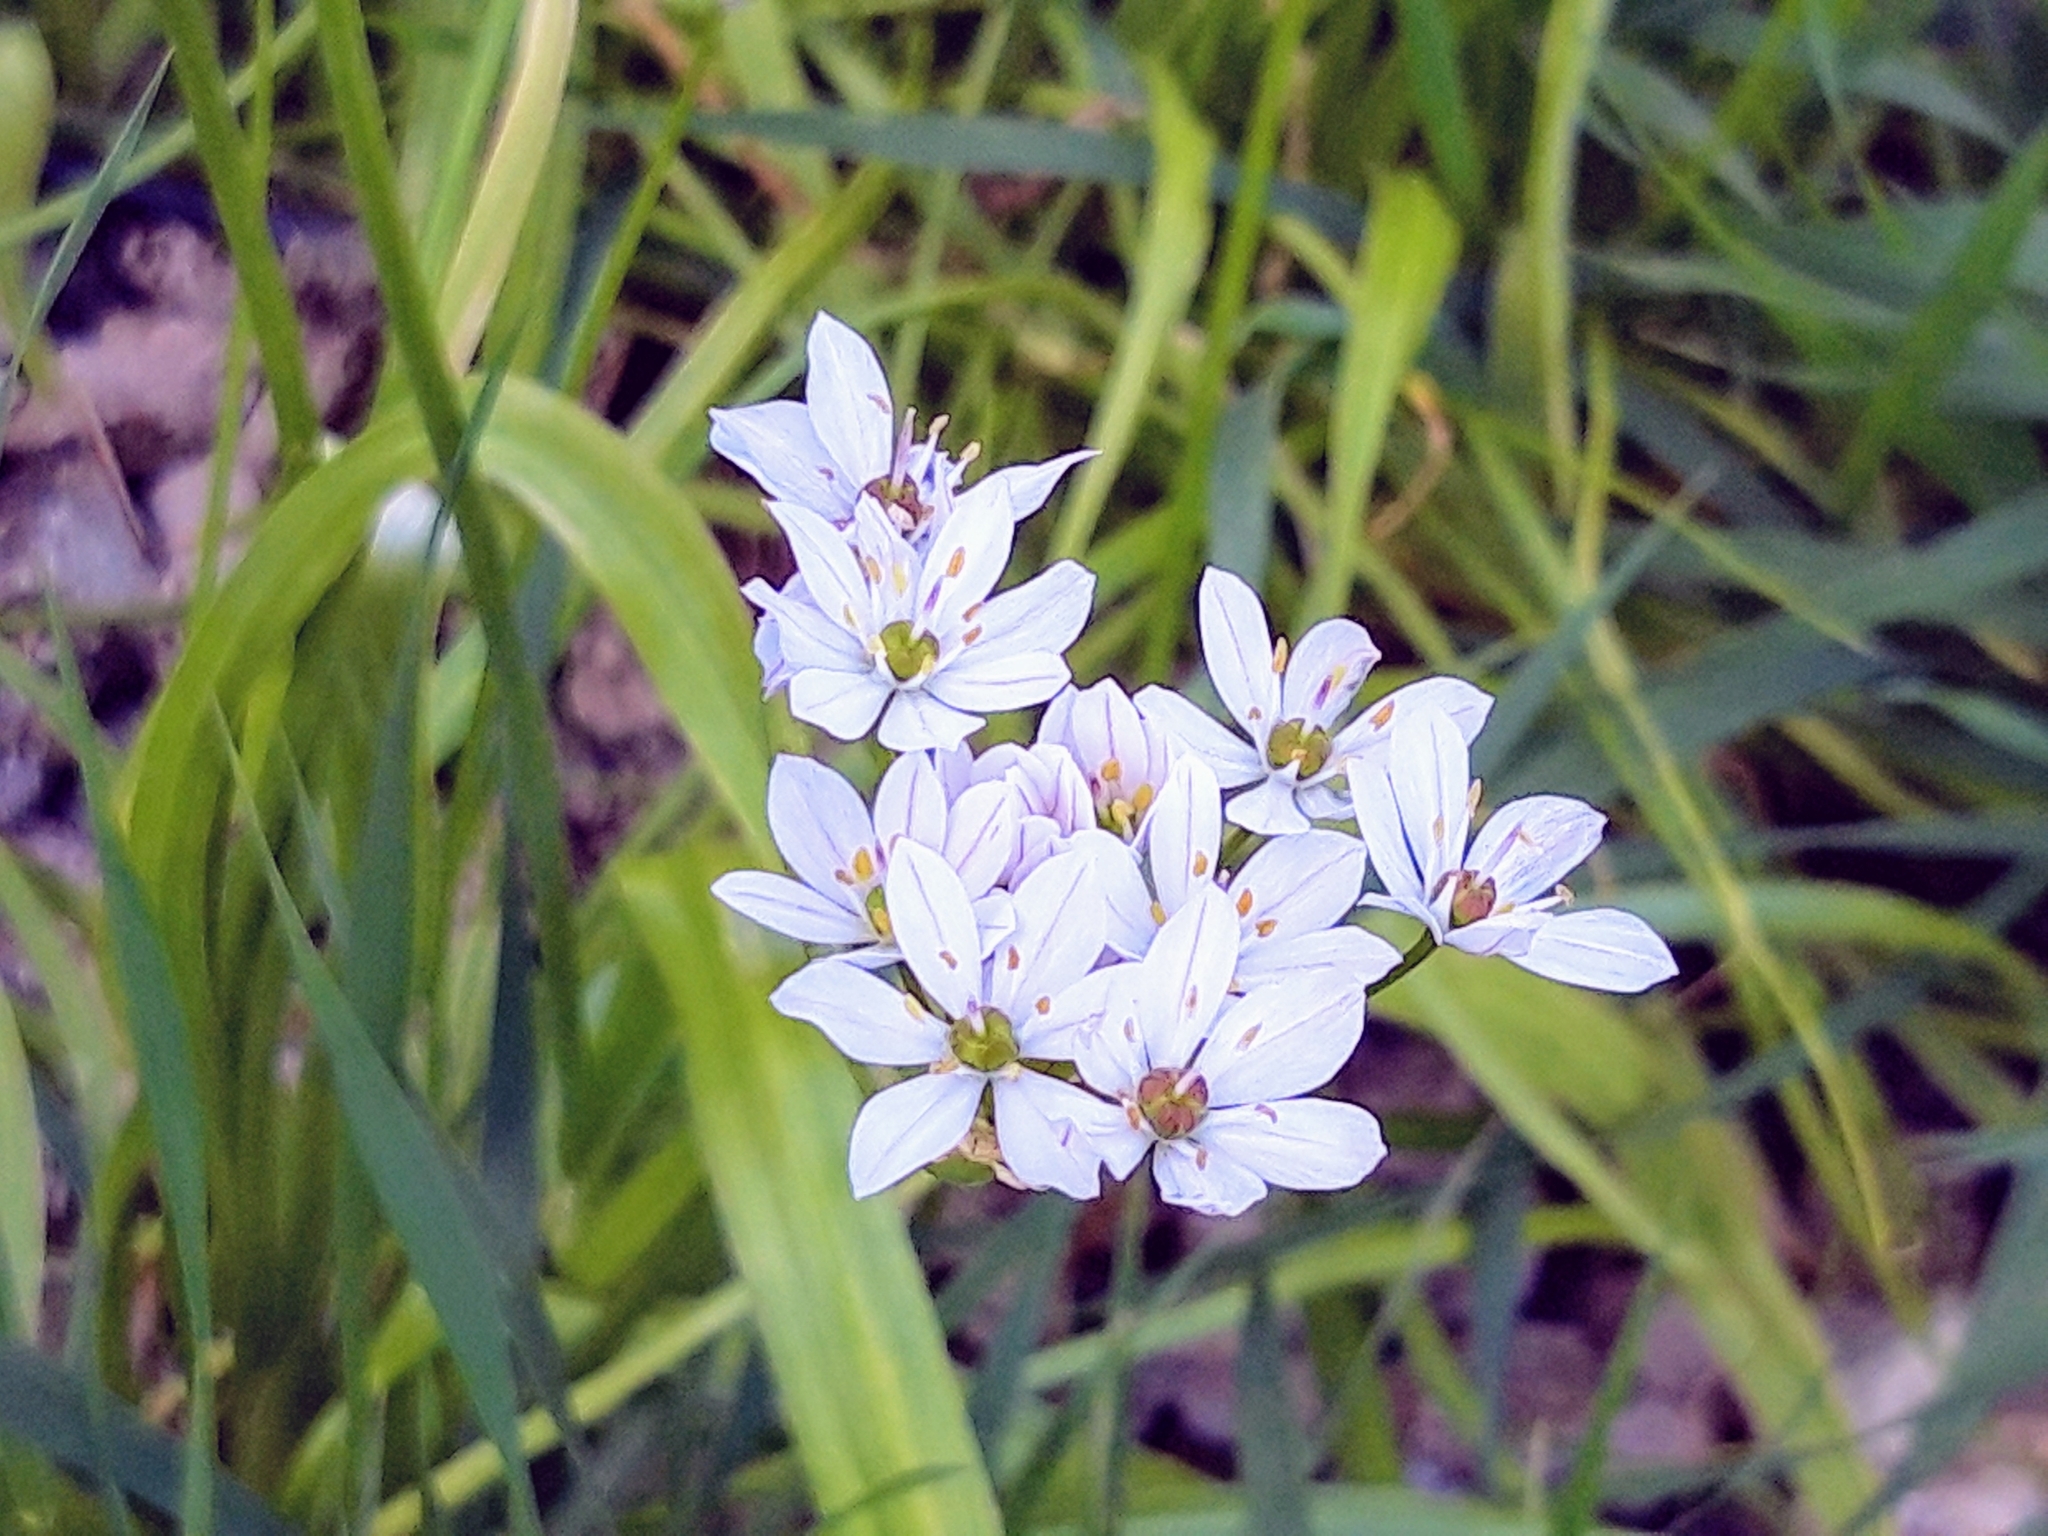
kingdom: Plantae
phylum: Tracheophyta
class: Liliopsida
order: Asparagales
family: Amaryllidaceae
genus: Allium
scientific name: Allium trifoliatum
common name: Pink garlic
